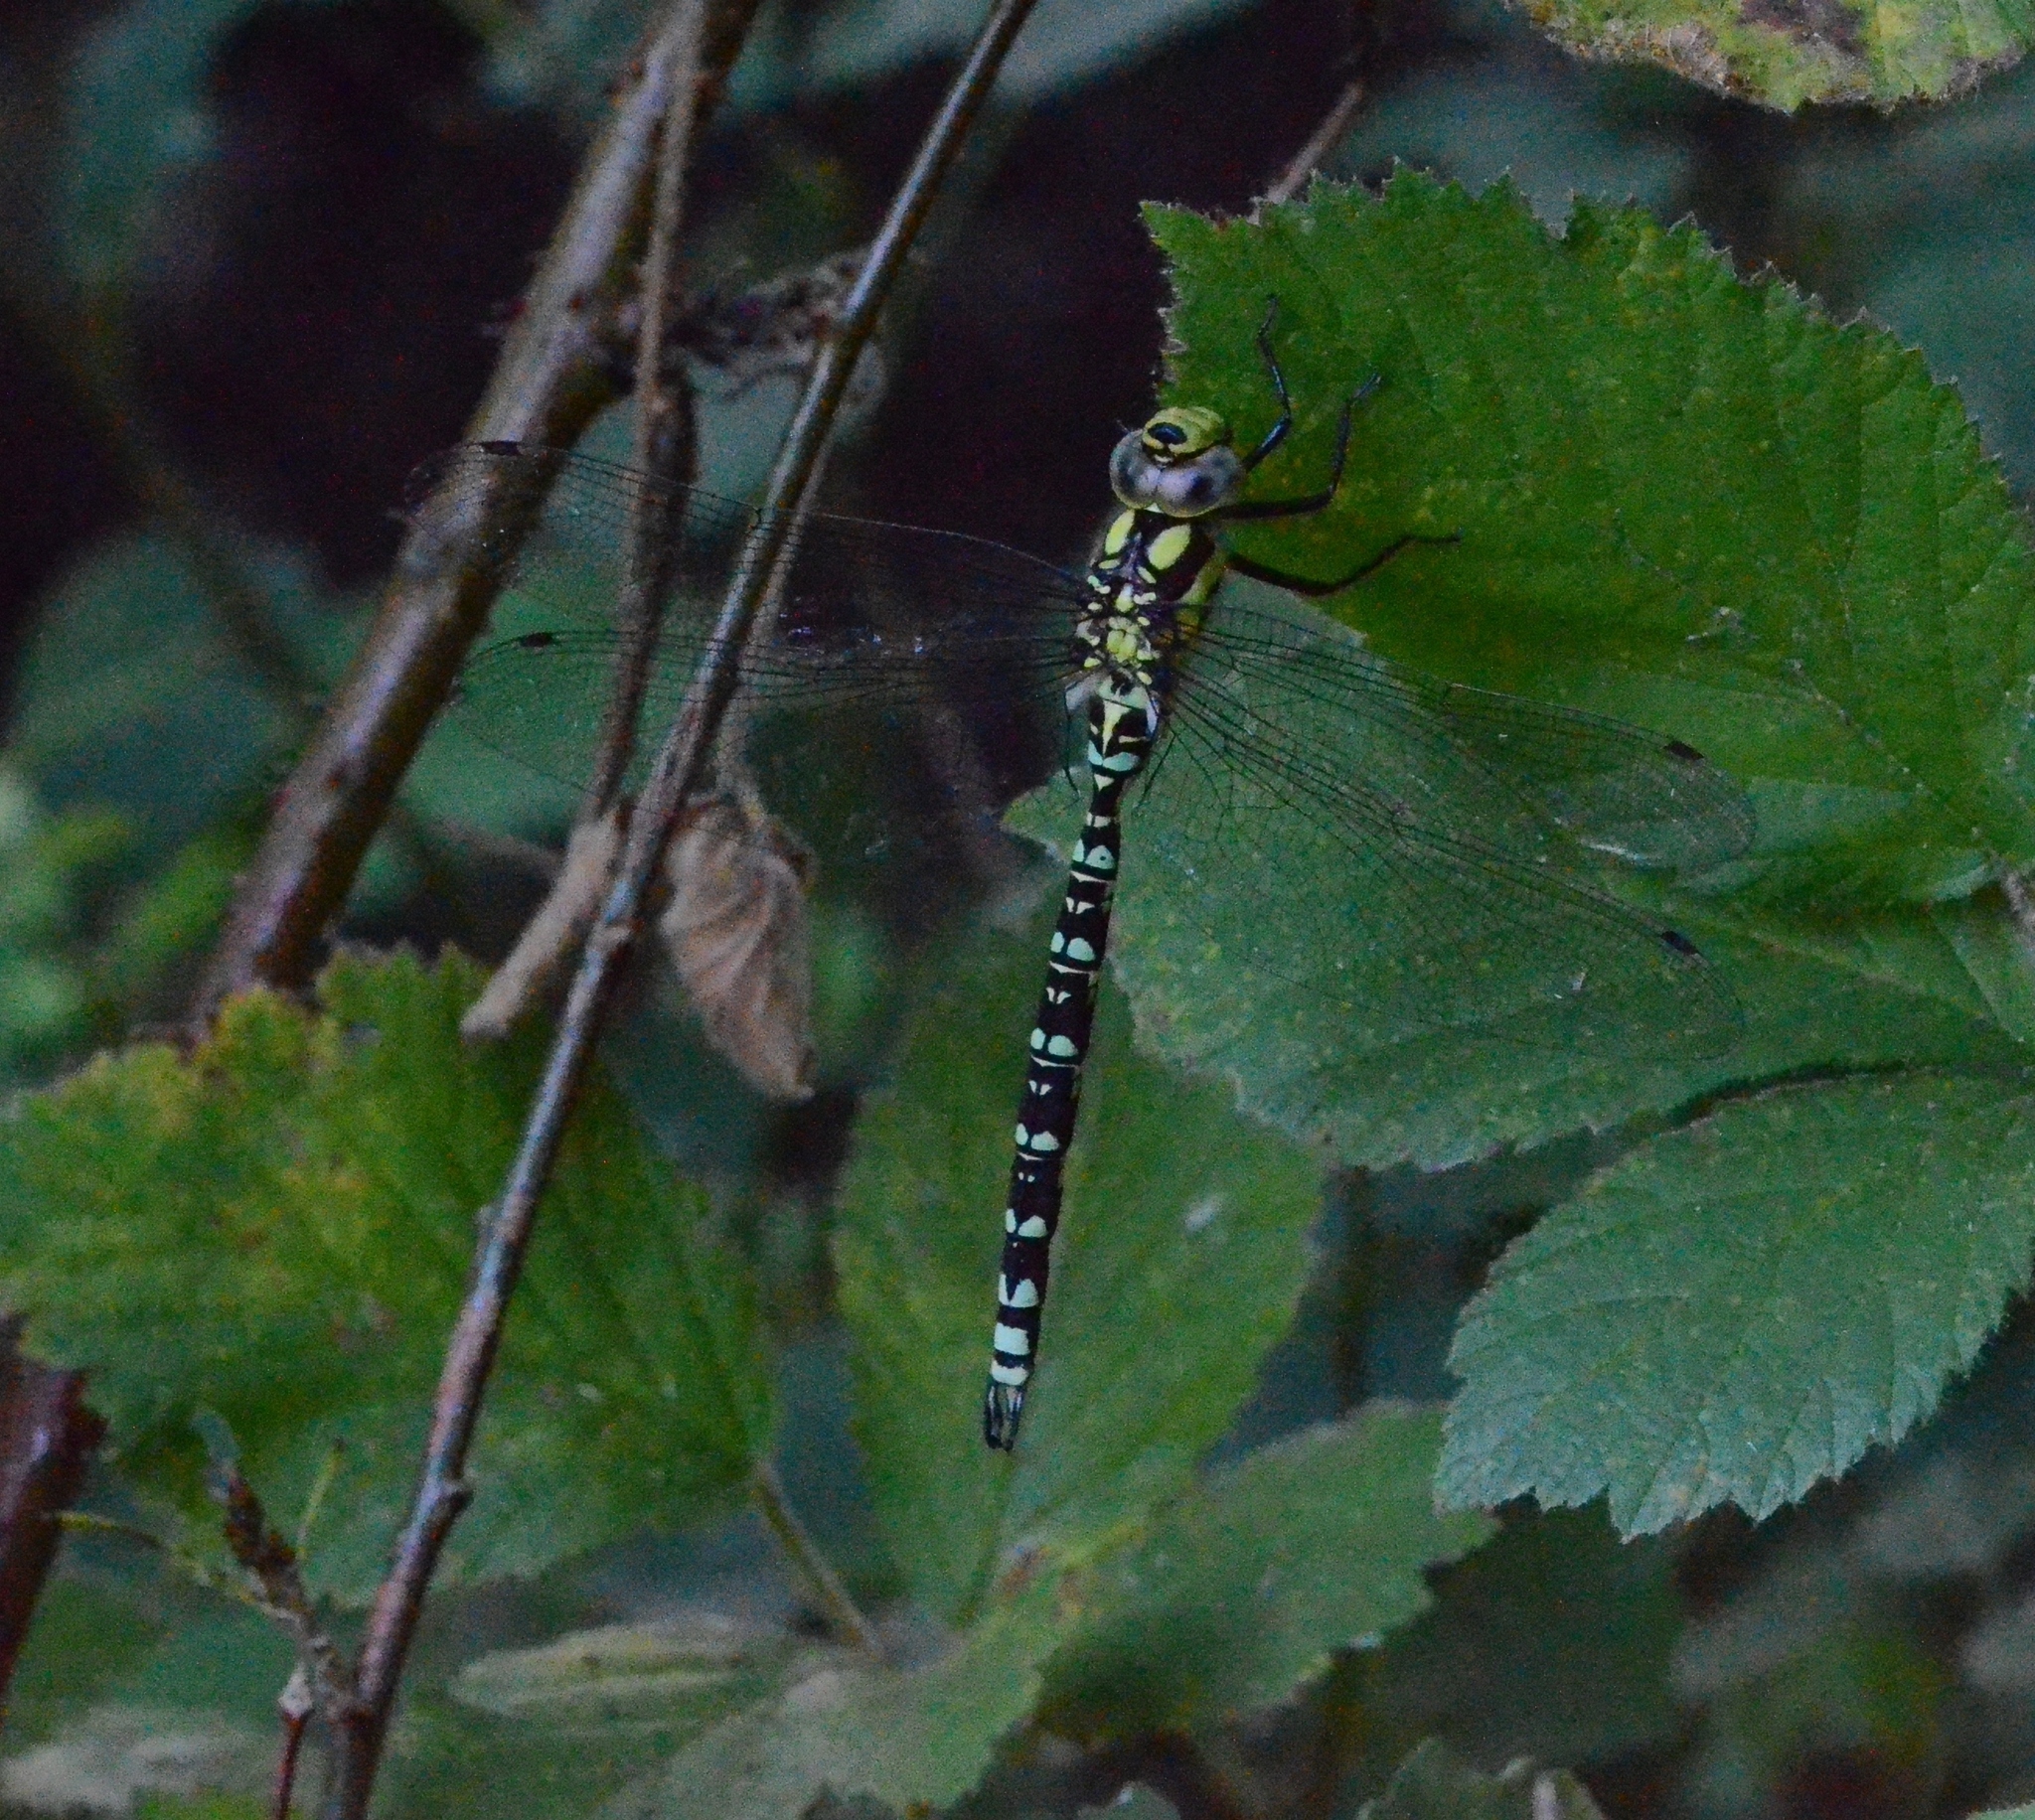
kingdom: Animalia
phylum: Arthropoda
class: Insecta
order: Odonata
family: Aeshnidae
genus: Aeshna
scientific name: Aeshna cyanea
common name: Southern hawker
